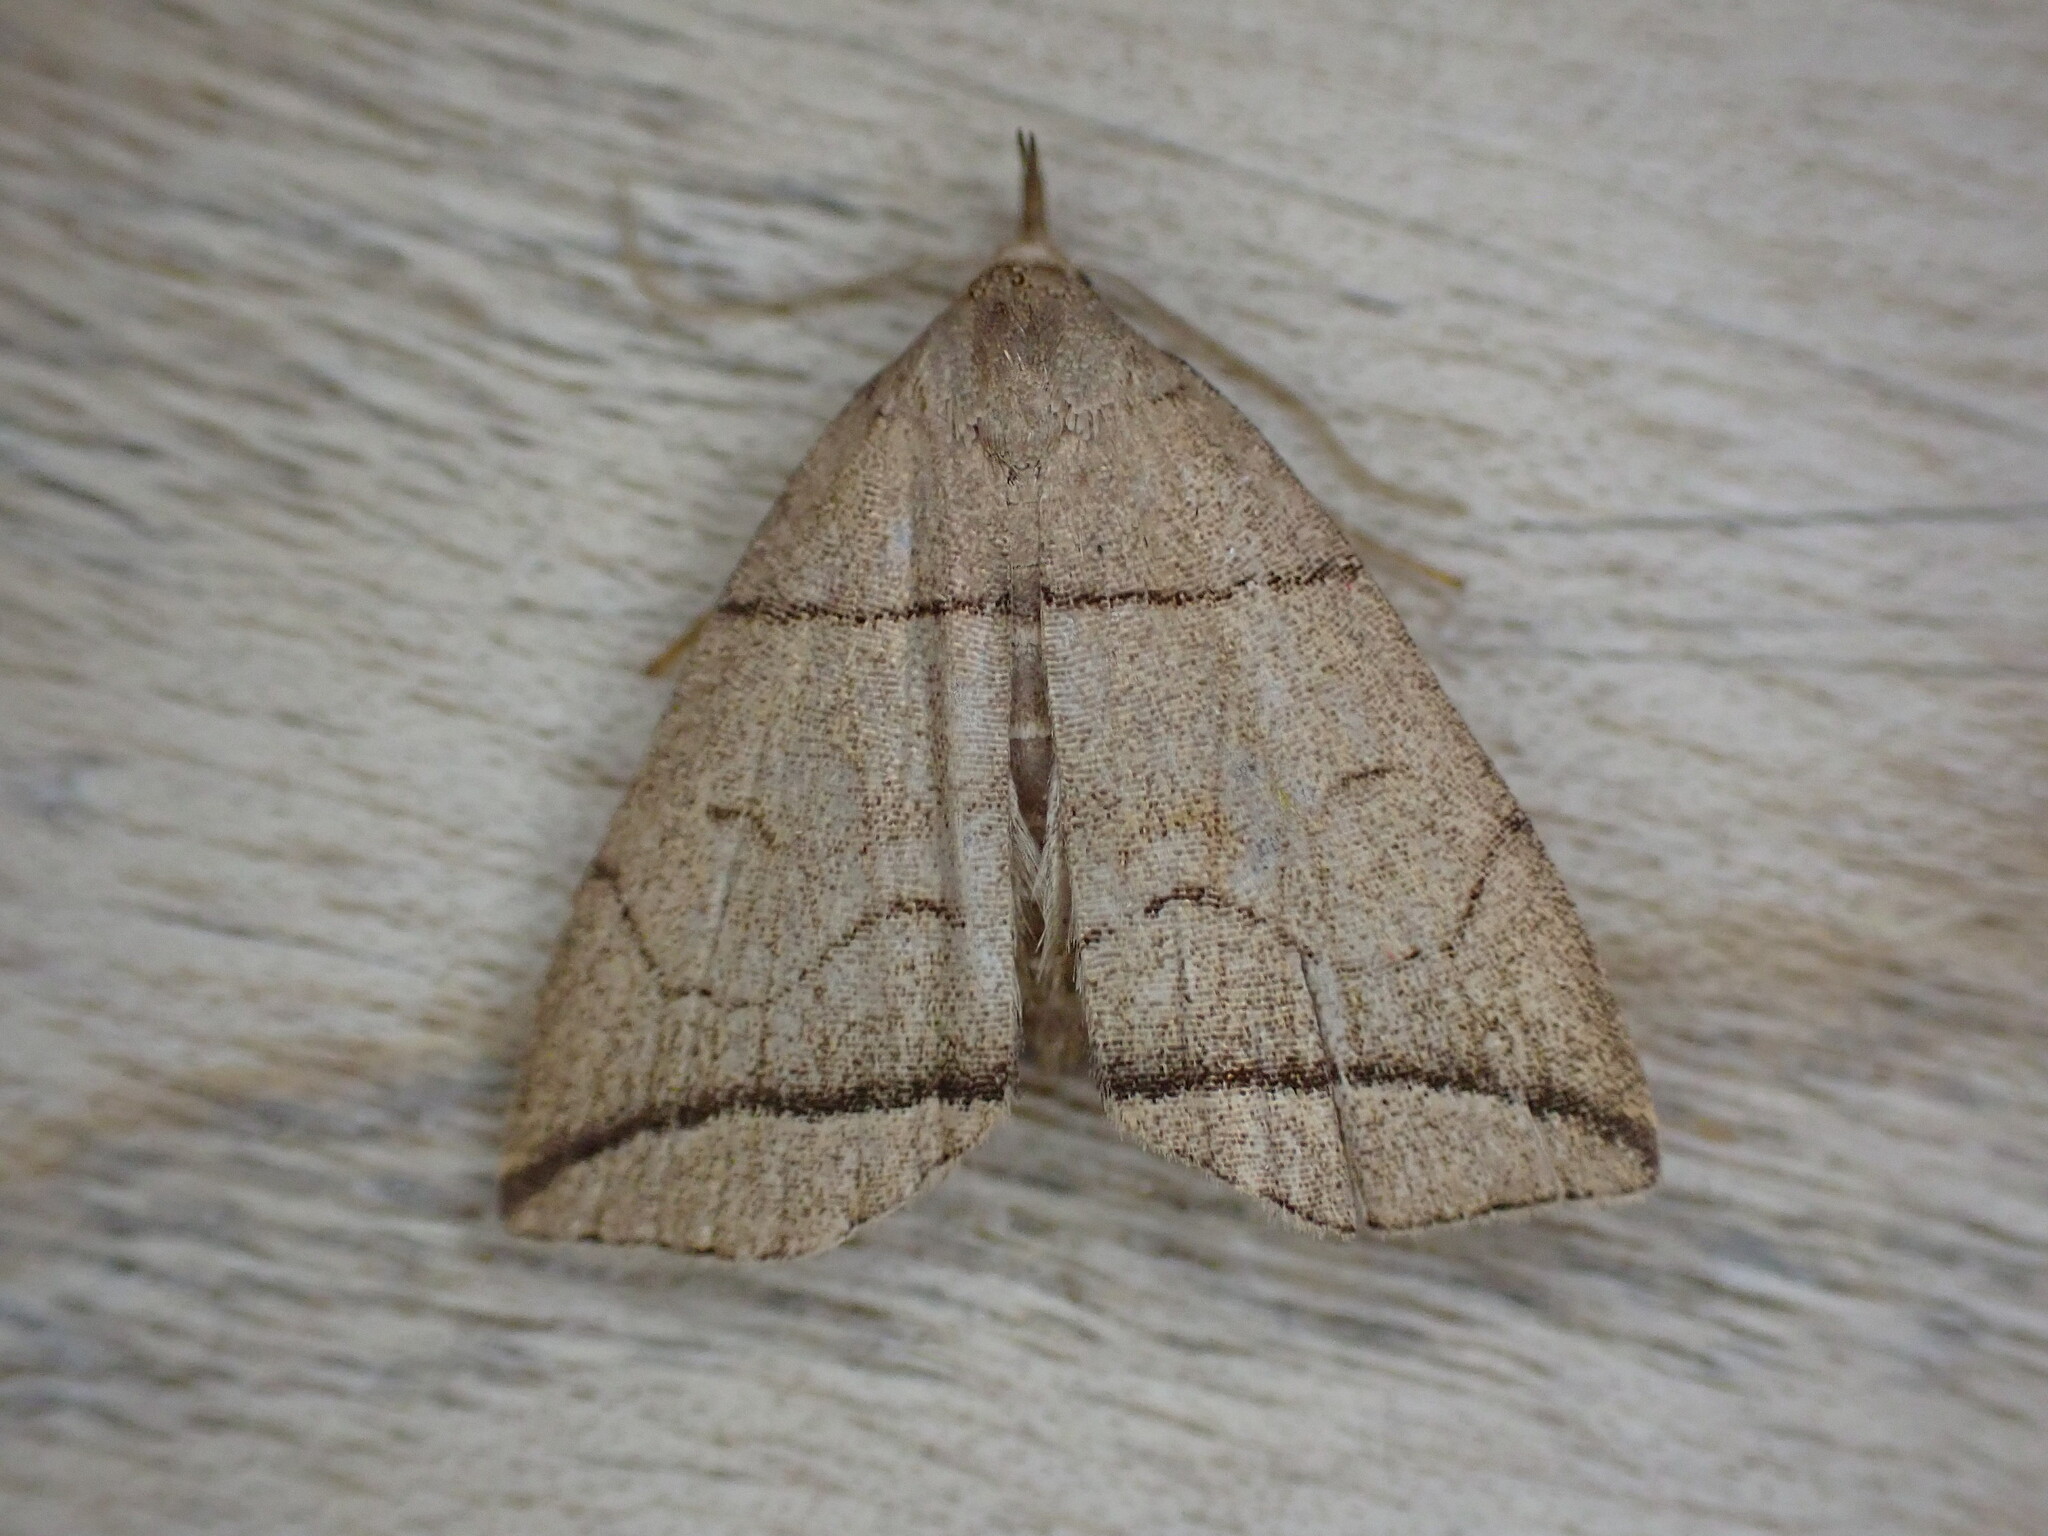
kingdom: Animalia
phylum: Arthropoda
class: Insecta
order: Lepidoptera
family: Erebidae
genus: Herminia
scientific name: Herminia grisealis
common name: Small fan-foot
